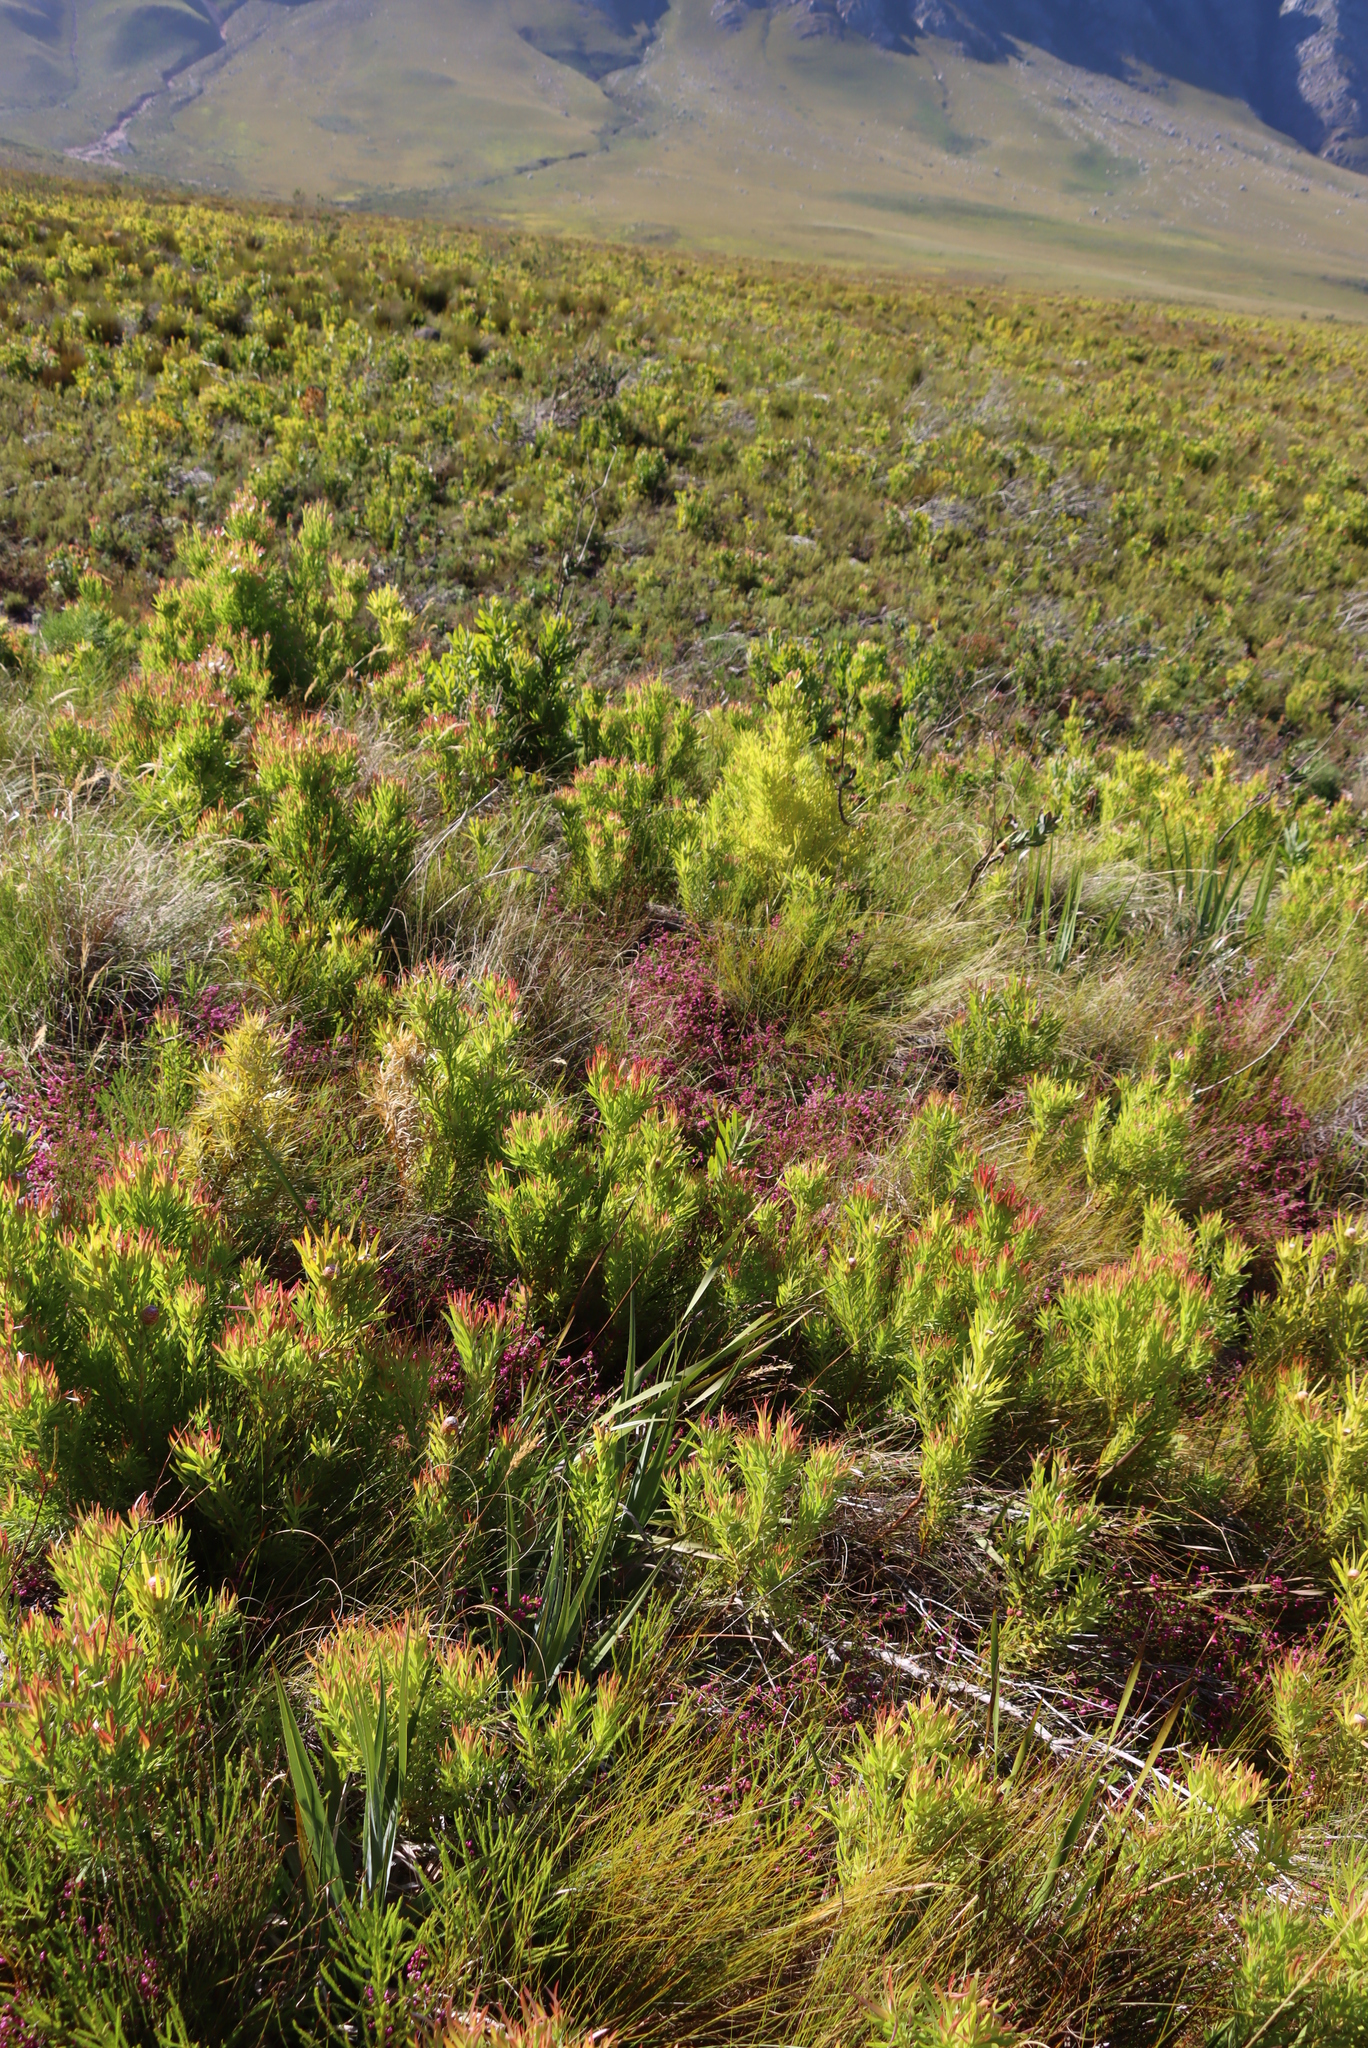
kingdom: Plantae
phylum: Tracheophyta
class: Magnoliopsida
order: Proteales
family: Proteaceae
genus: Leucadendron
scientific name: Leucadendron xanthoconus
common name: Sickle-leaf conebush
